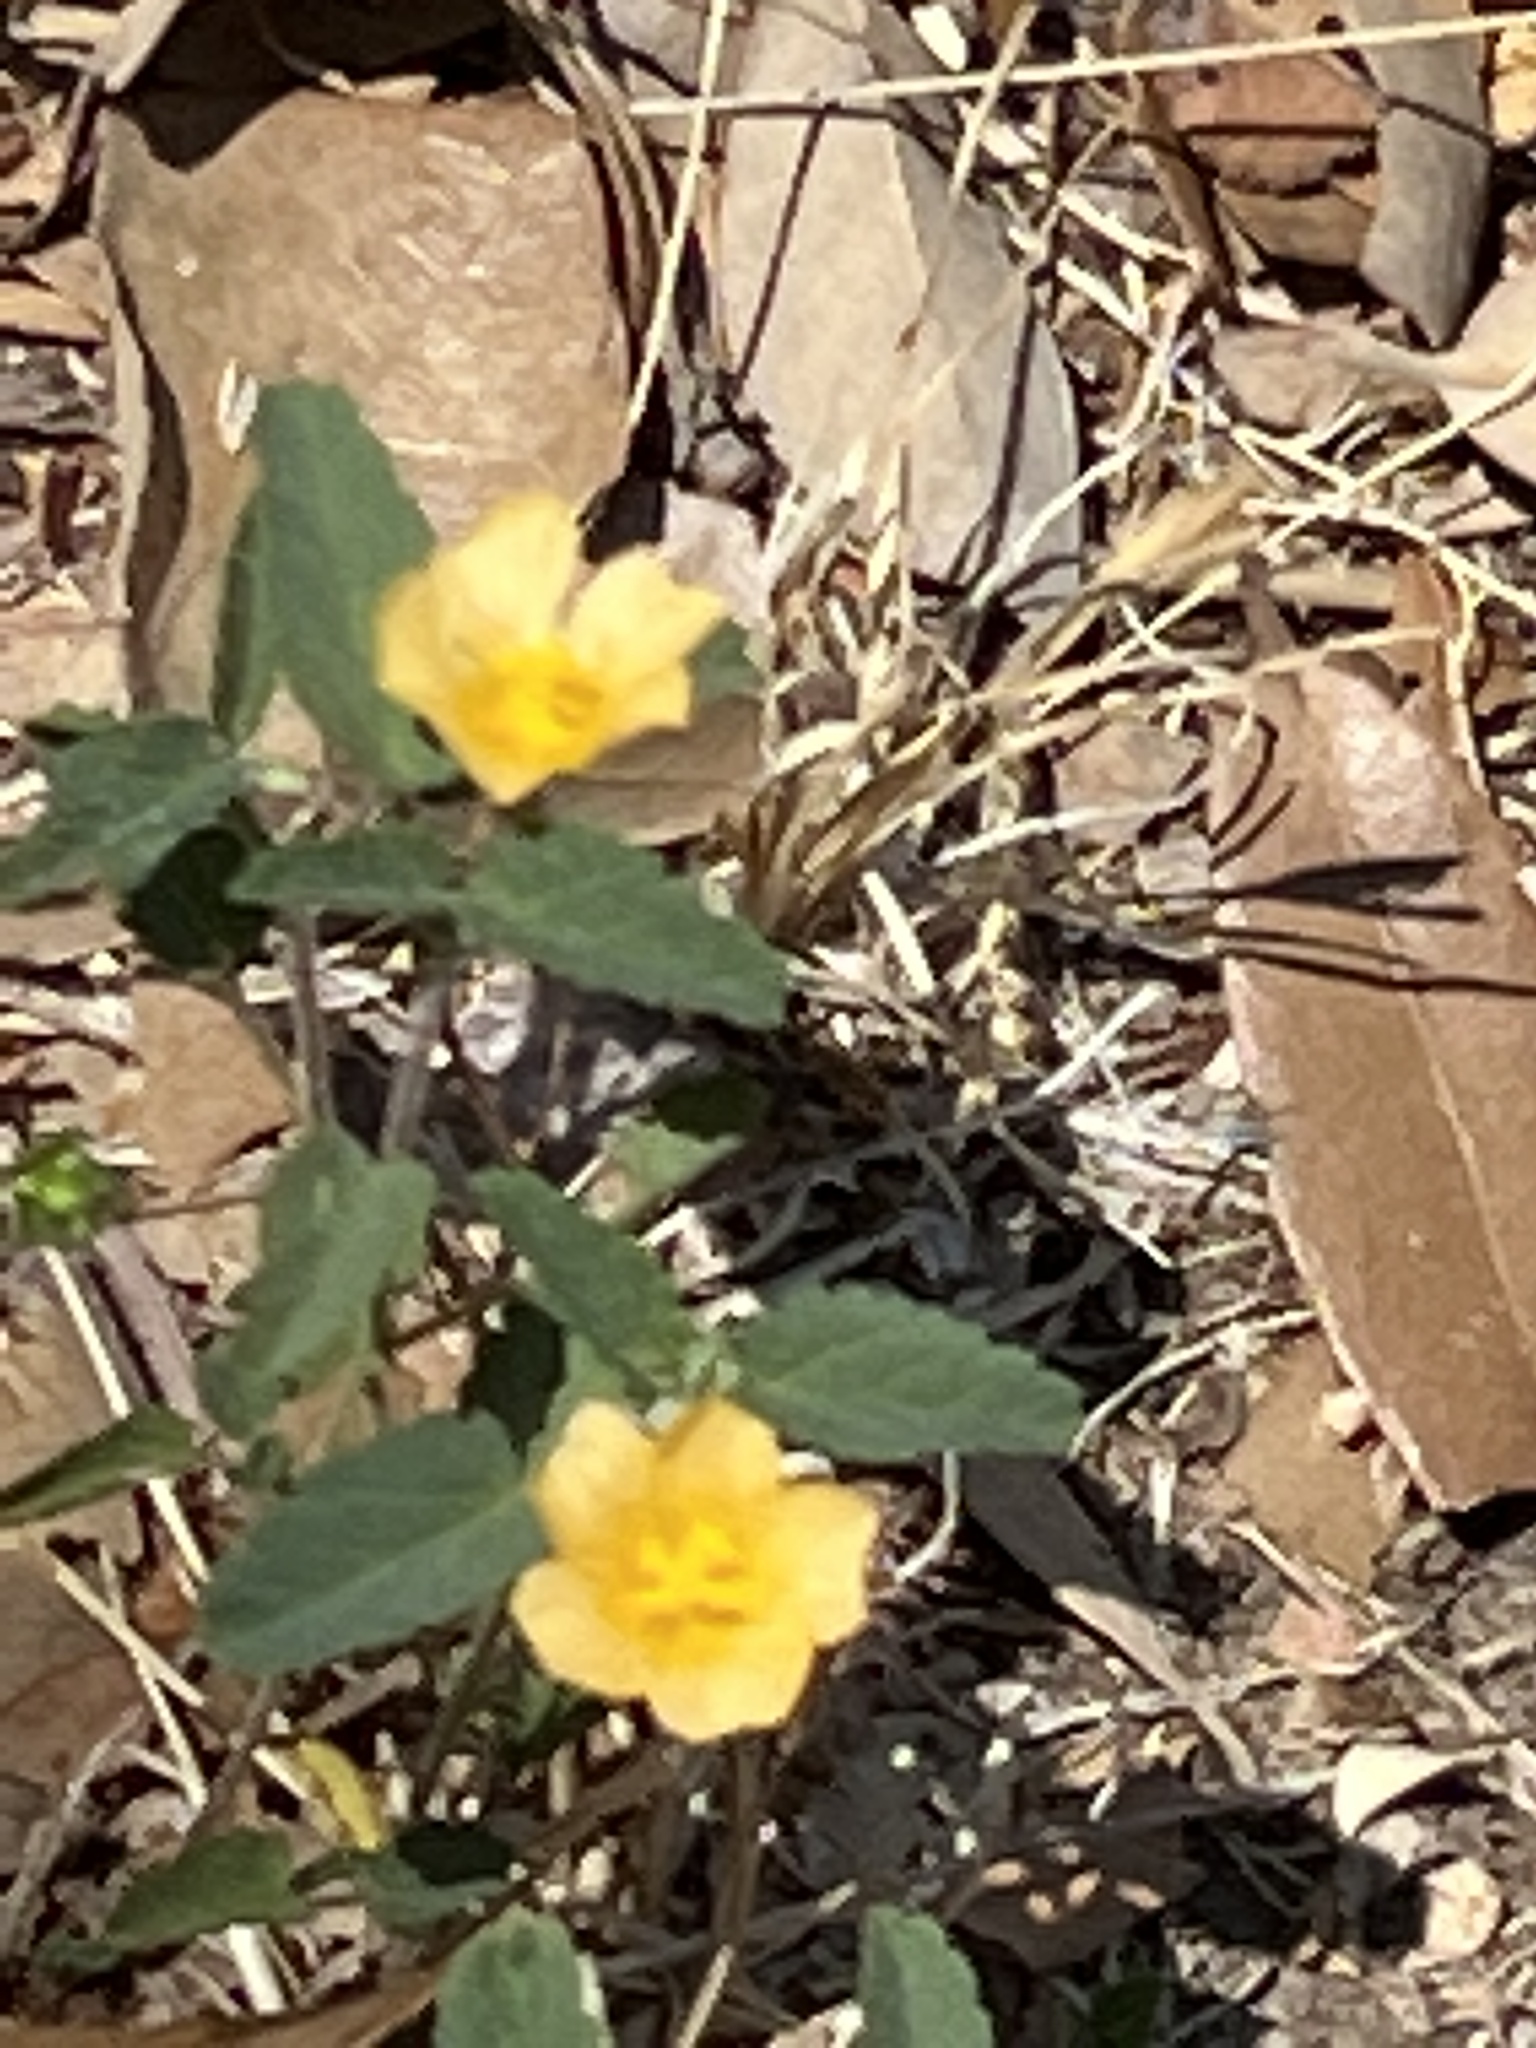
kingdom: Plantae
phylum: Tracheophyta
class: Magnoliopsida
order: Malvales
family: Malvaceae
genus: Sida
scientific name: Sida abutilifolia
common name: Spreading fanpetals
